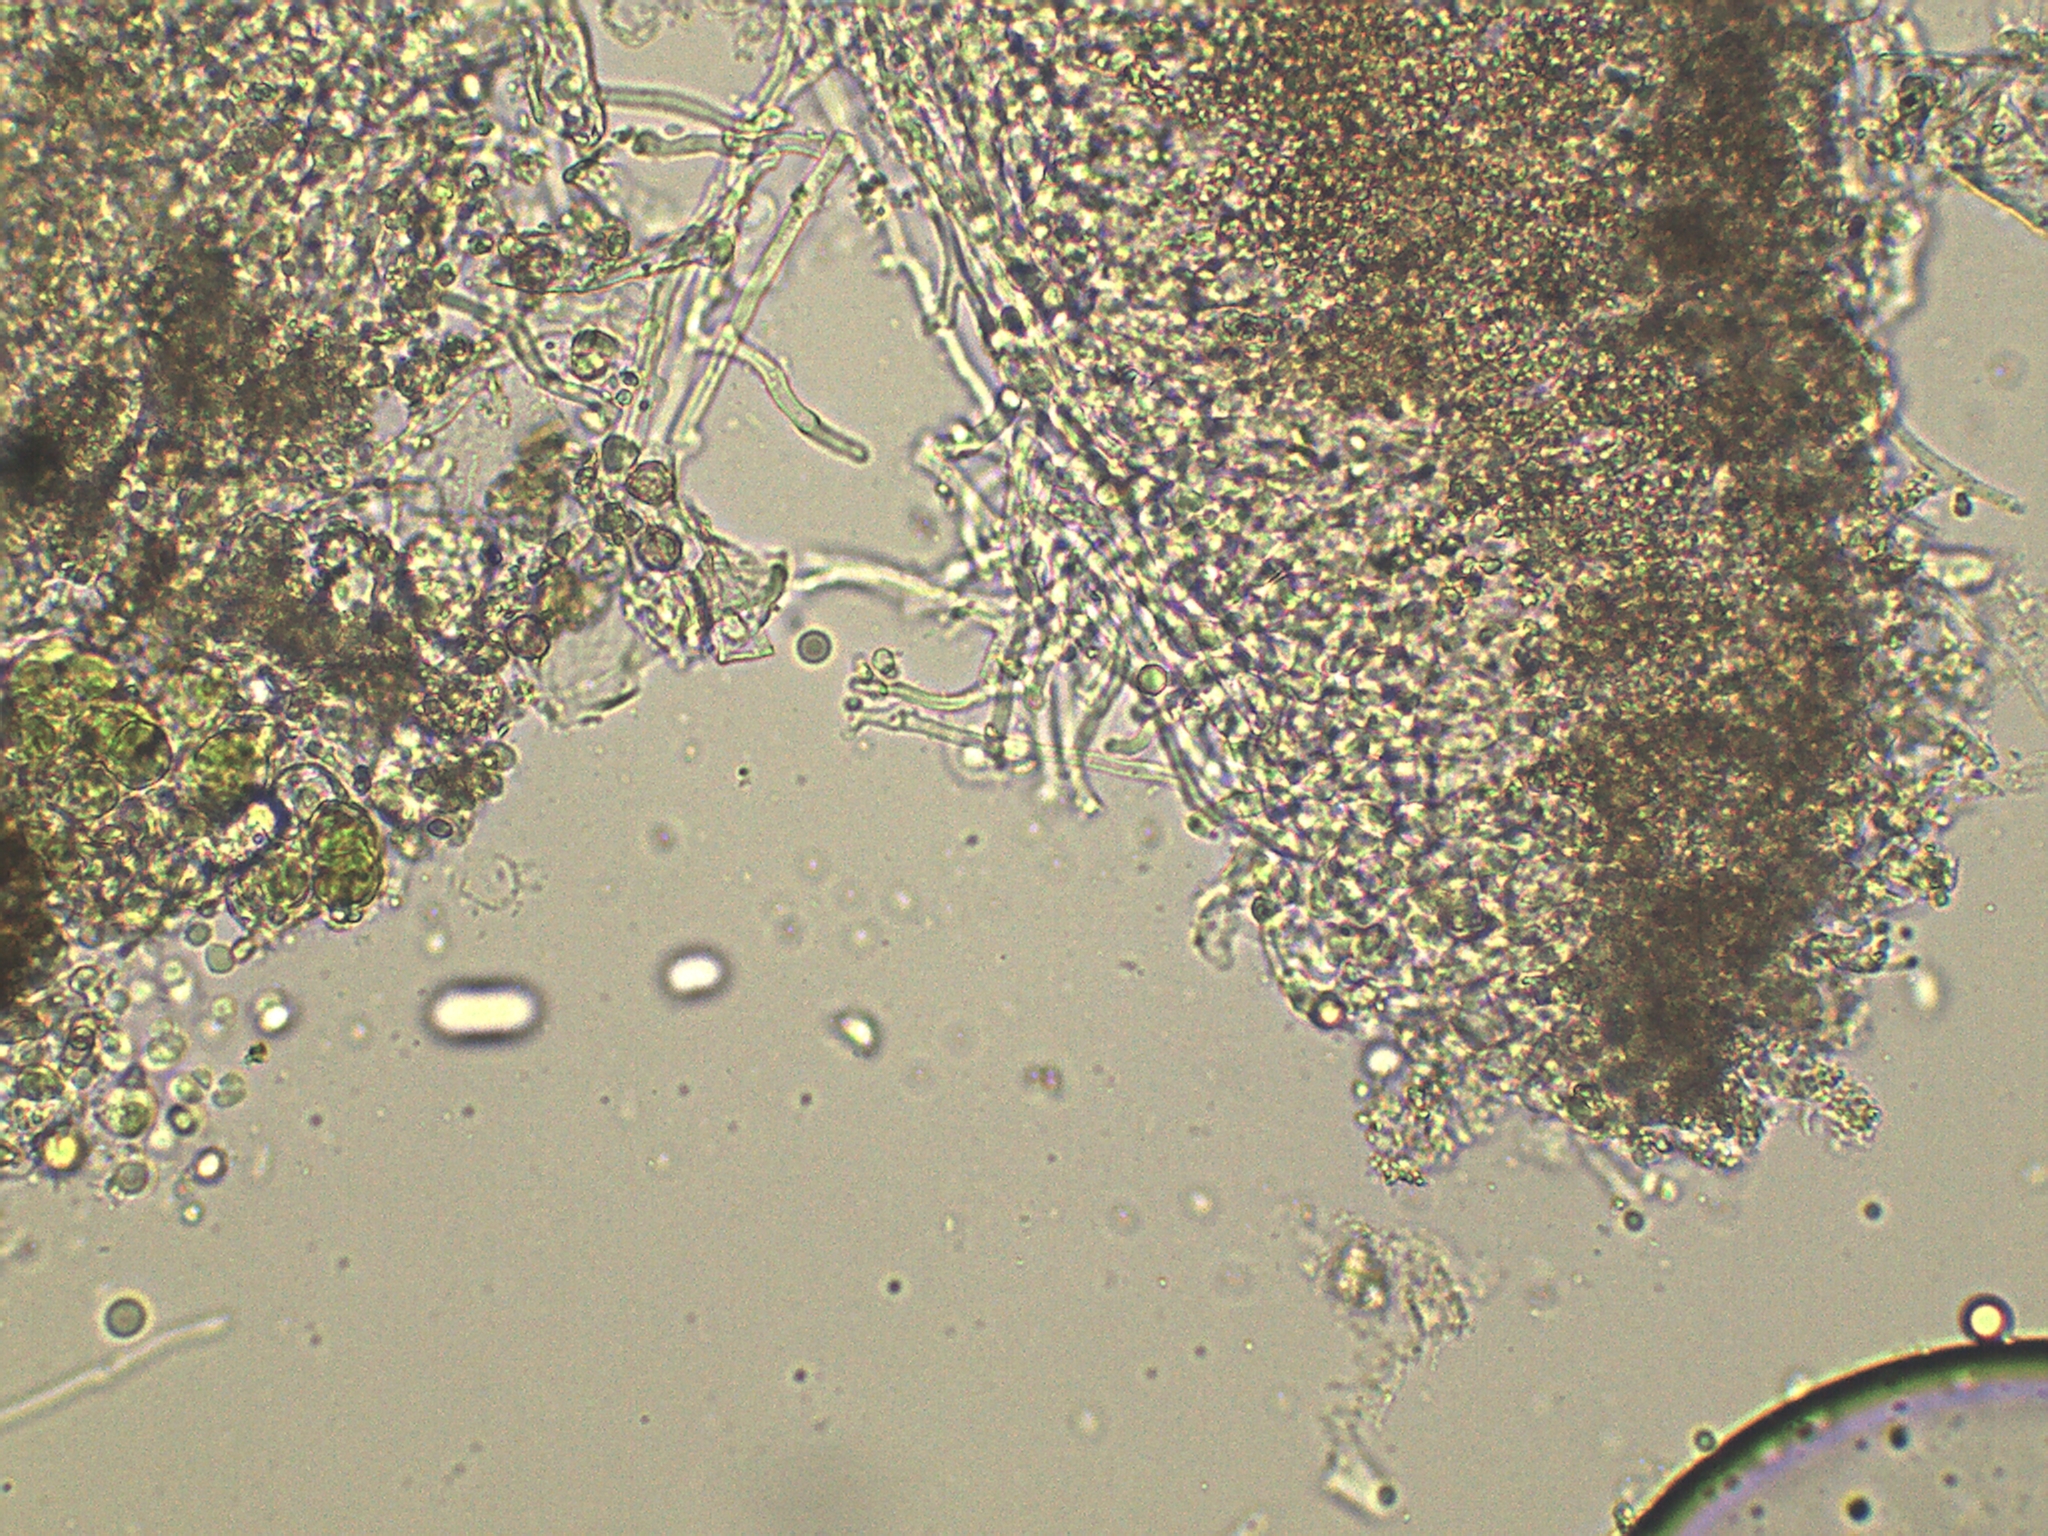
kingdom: Fungi
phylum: Basidiomycota
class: Agaricomycetes
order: Corticiales
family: Corticiaceae
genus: Corticium
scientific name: Corticium roseum
